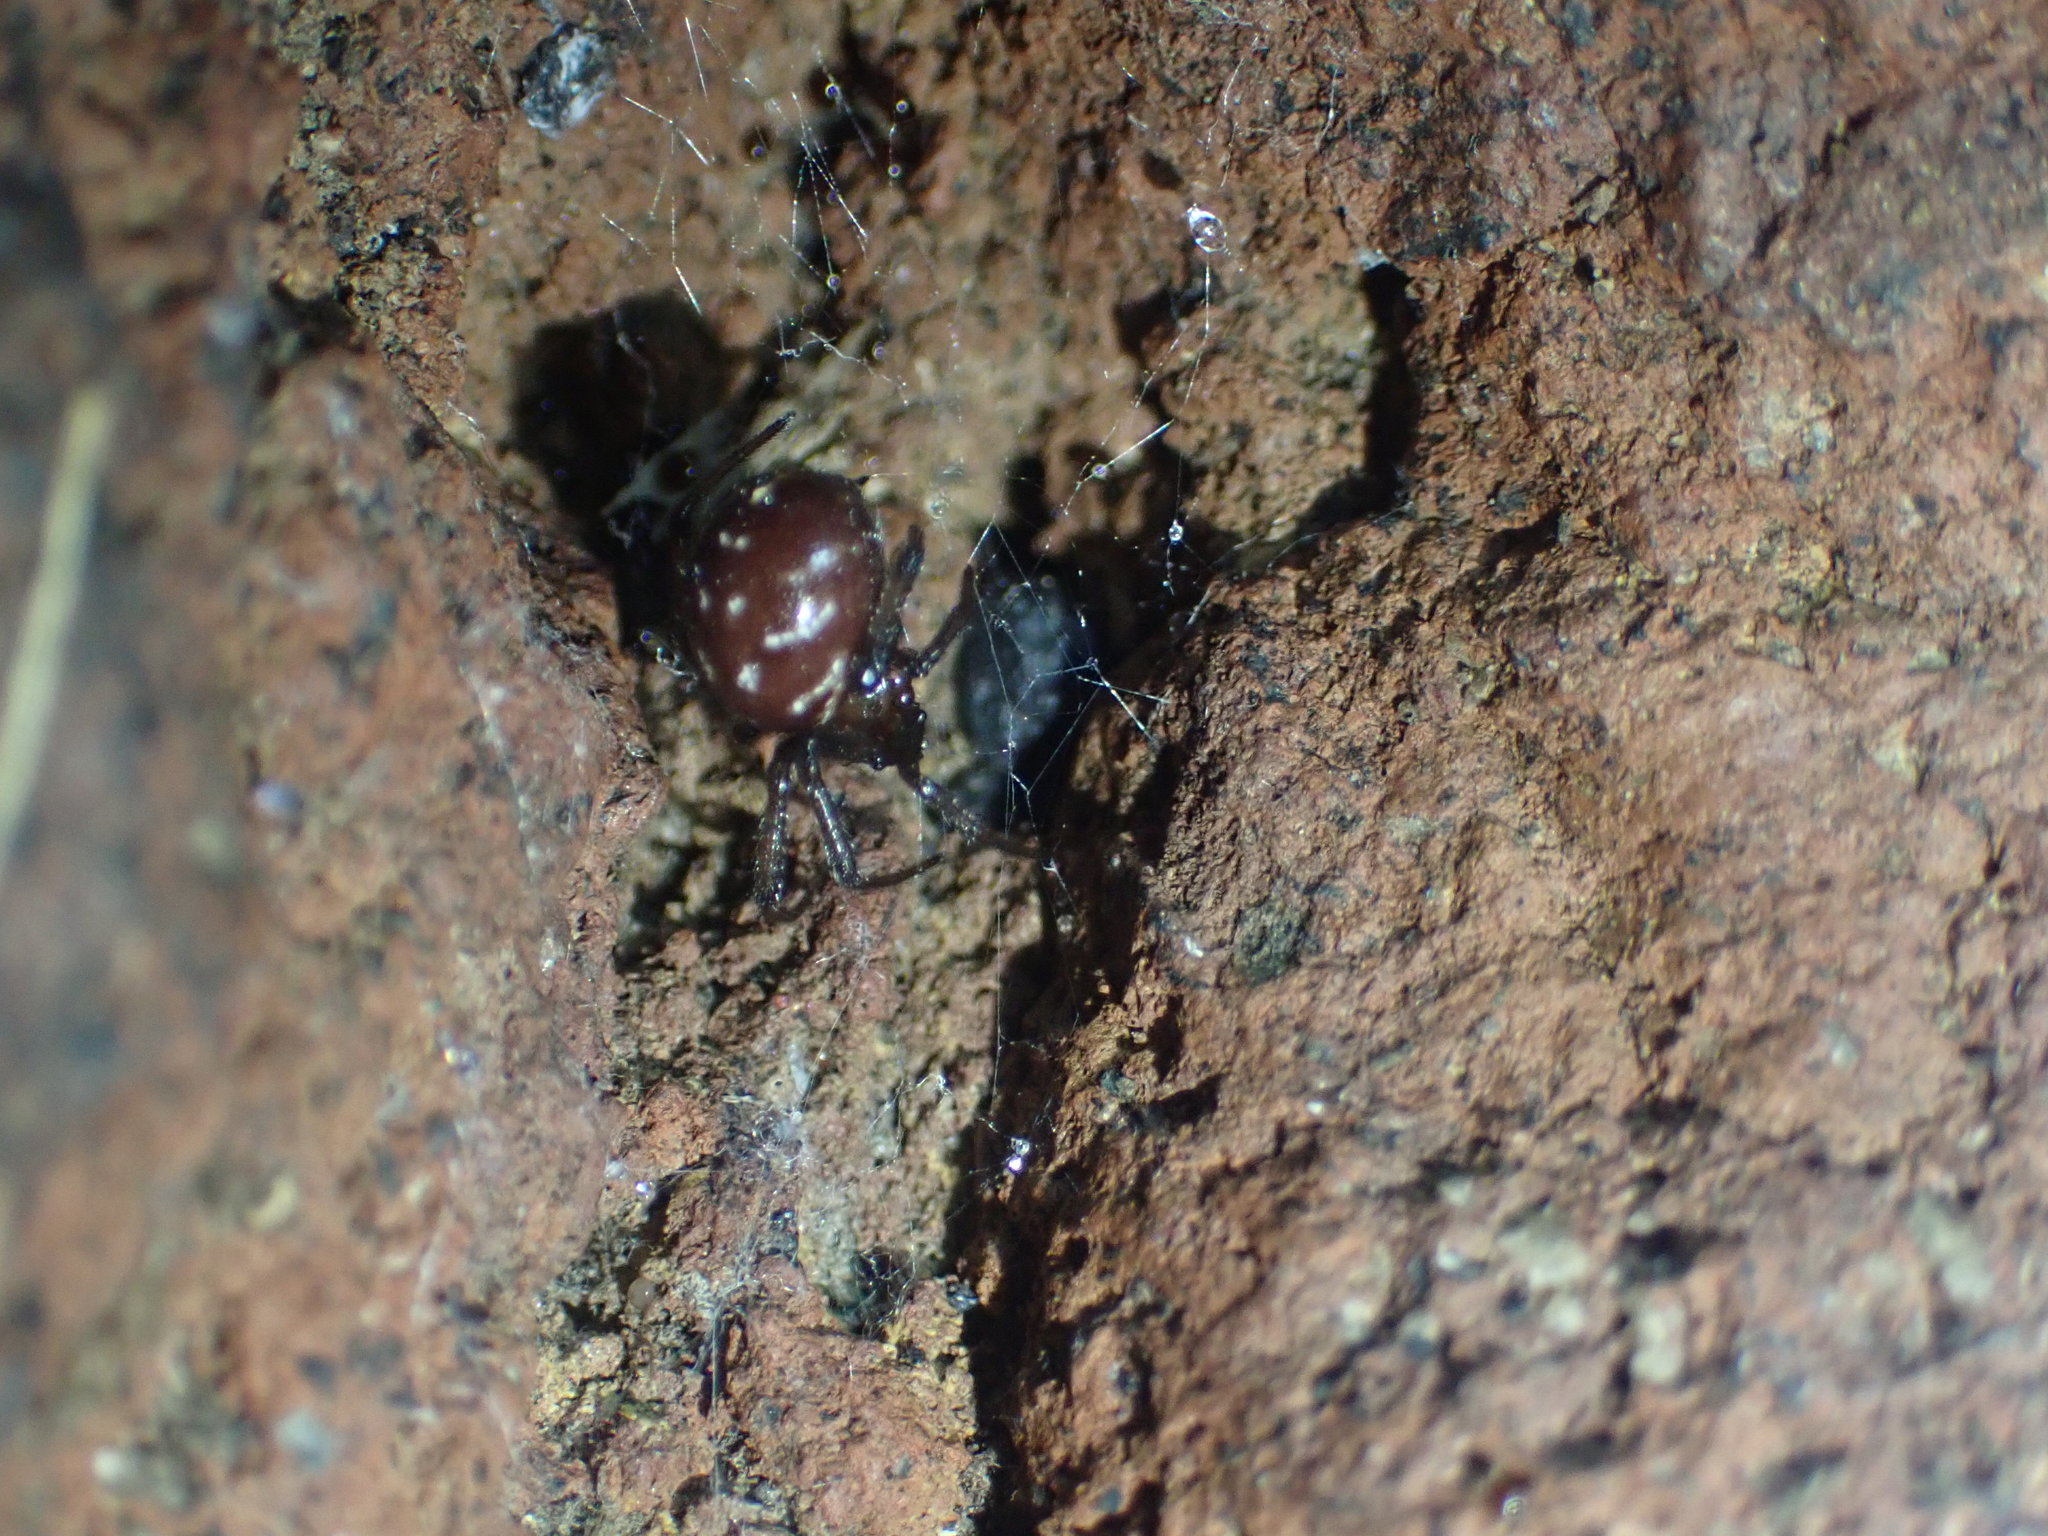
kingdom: Animalia
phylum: Arthropoda
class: Arachnida
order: Araneae
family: Theridiidae
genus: Steatoda
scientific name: Steatoda capensis
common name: Cobweb weaver
